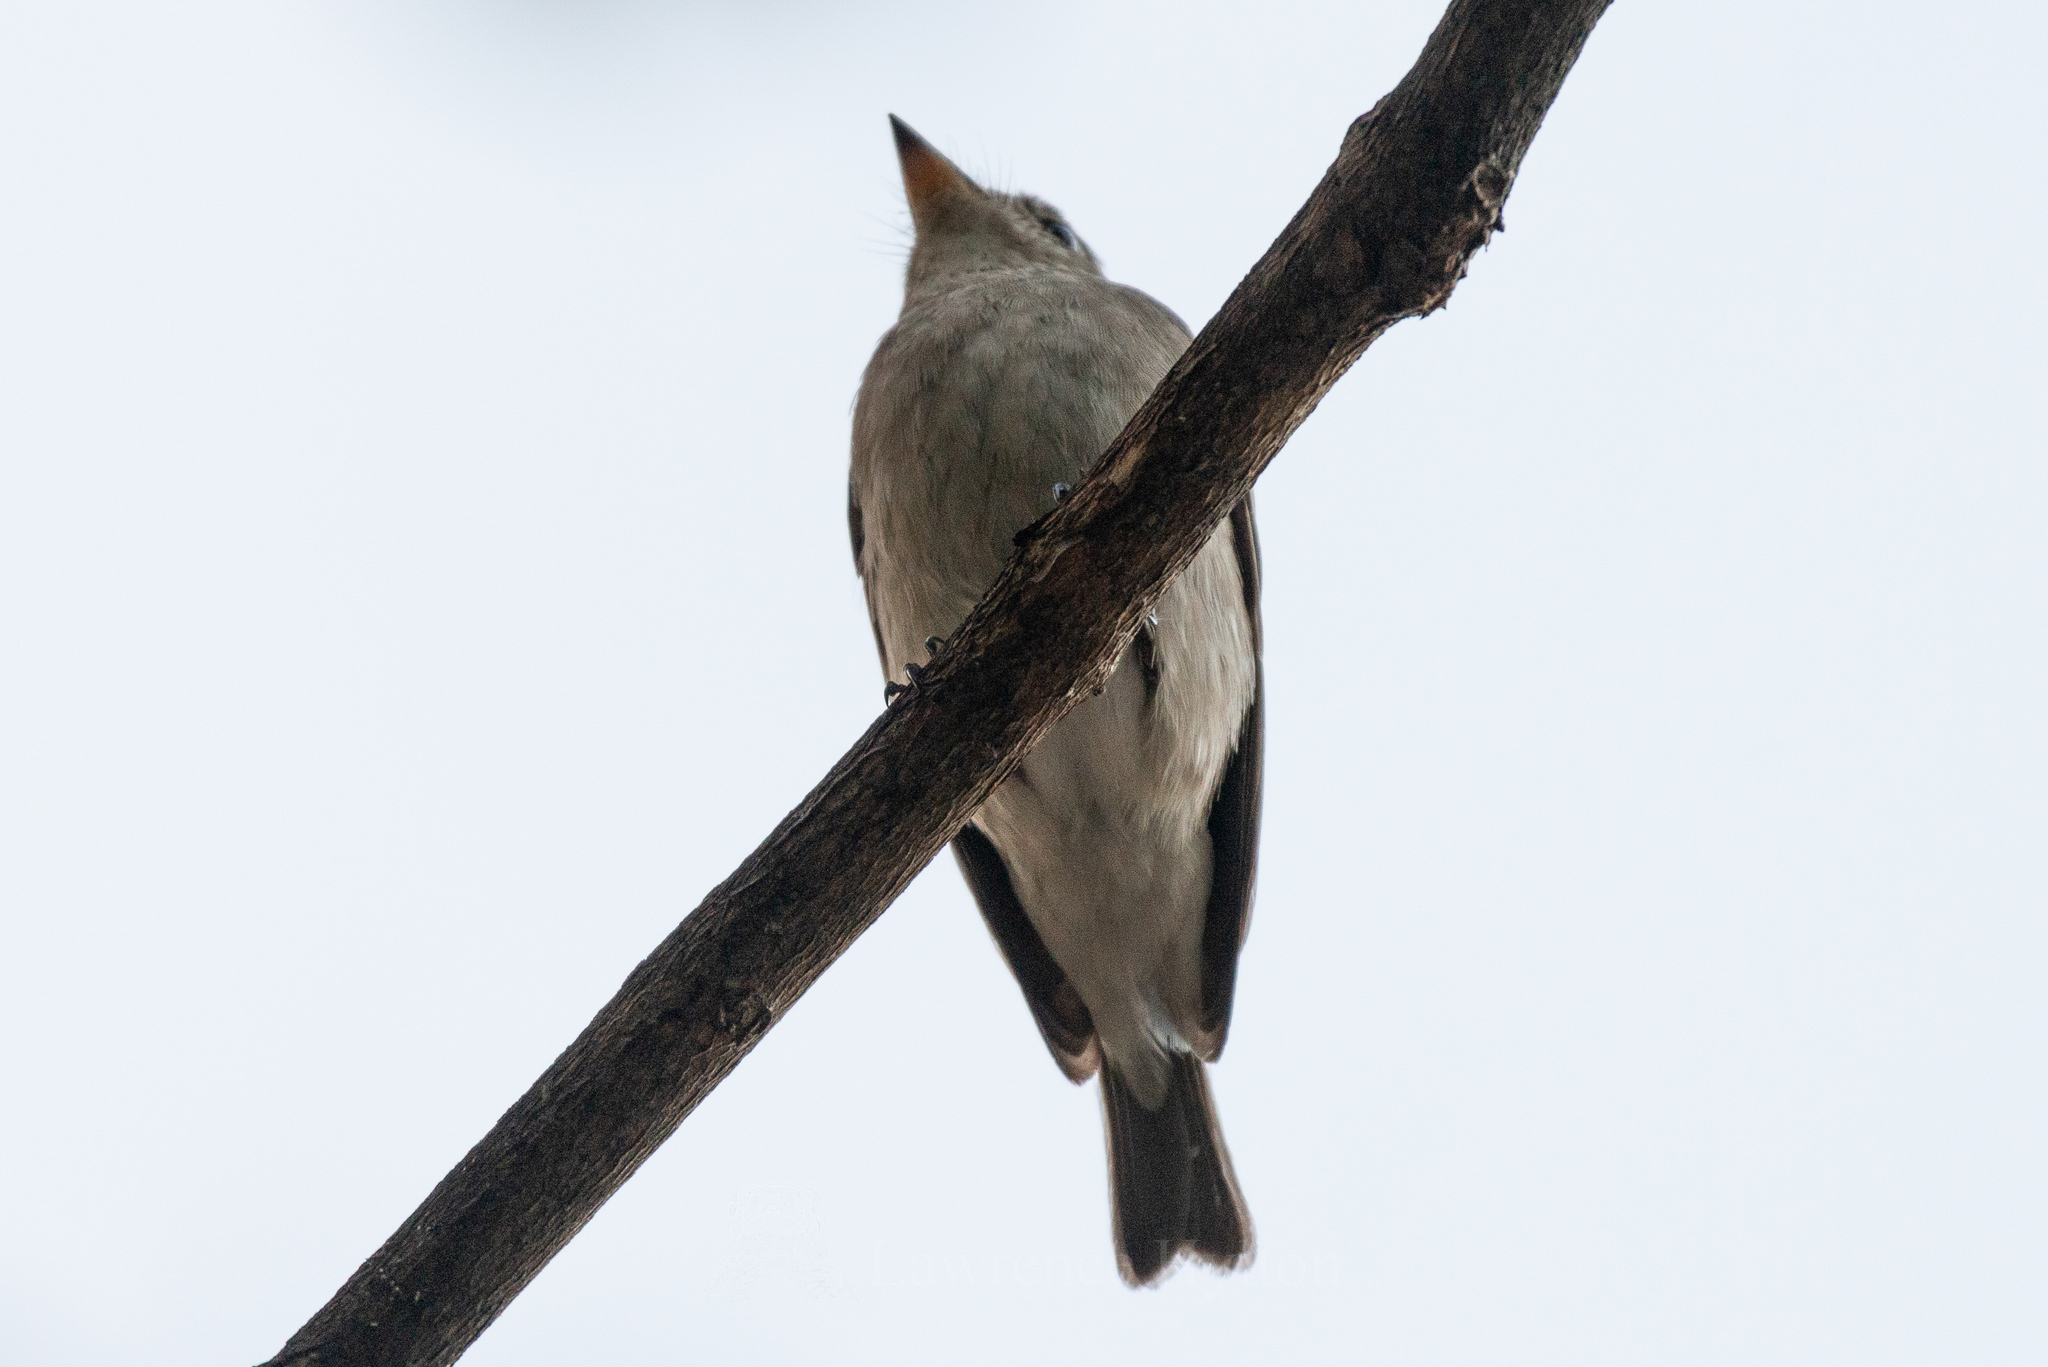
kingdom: Animalia
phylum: Chordata
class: Aves
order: Passeriformes
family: Muscicapidae
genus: Muscicapa
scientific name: Muscicapa latirostris
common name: Asian brown flycatcher
